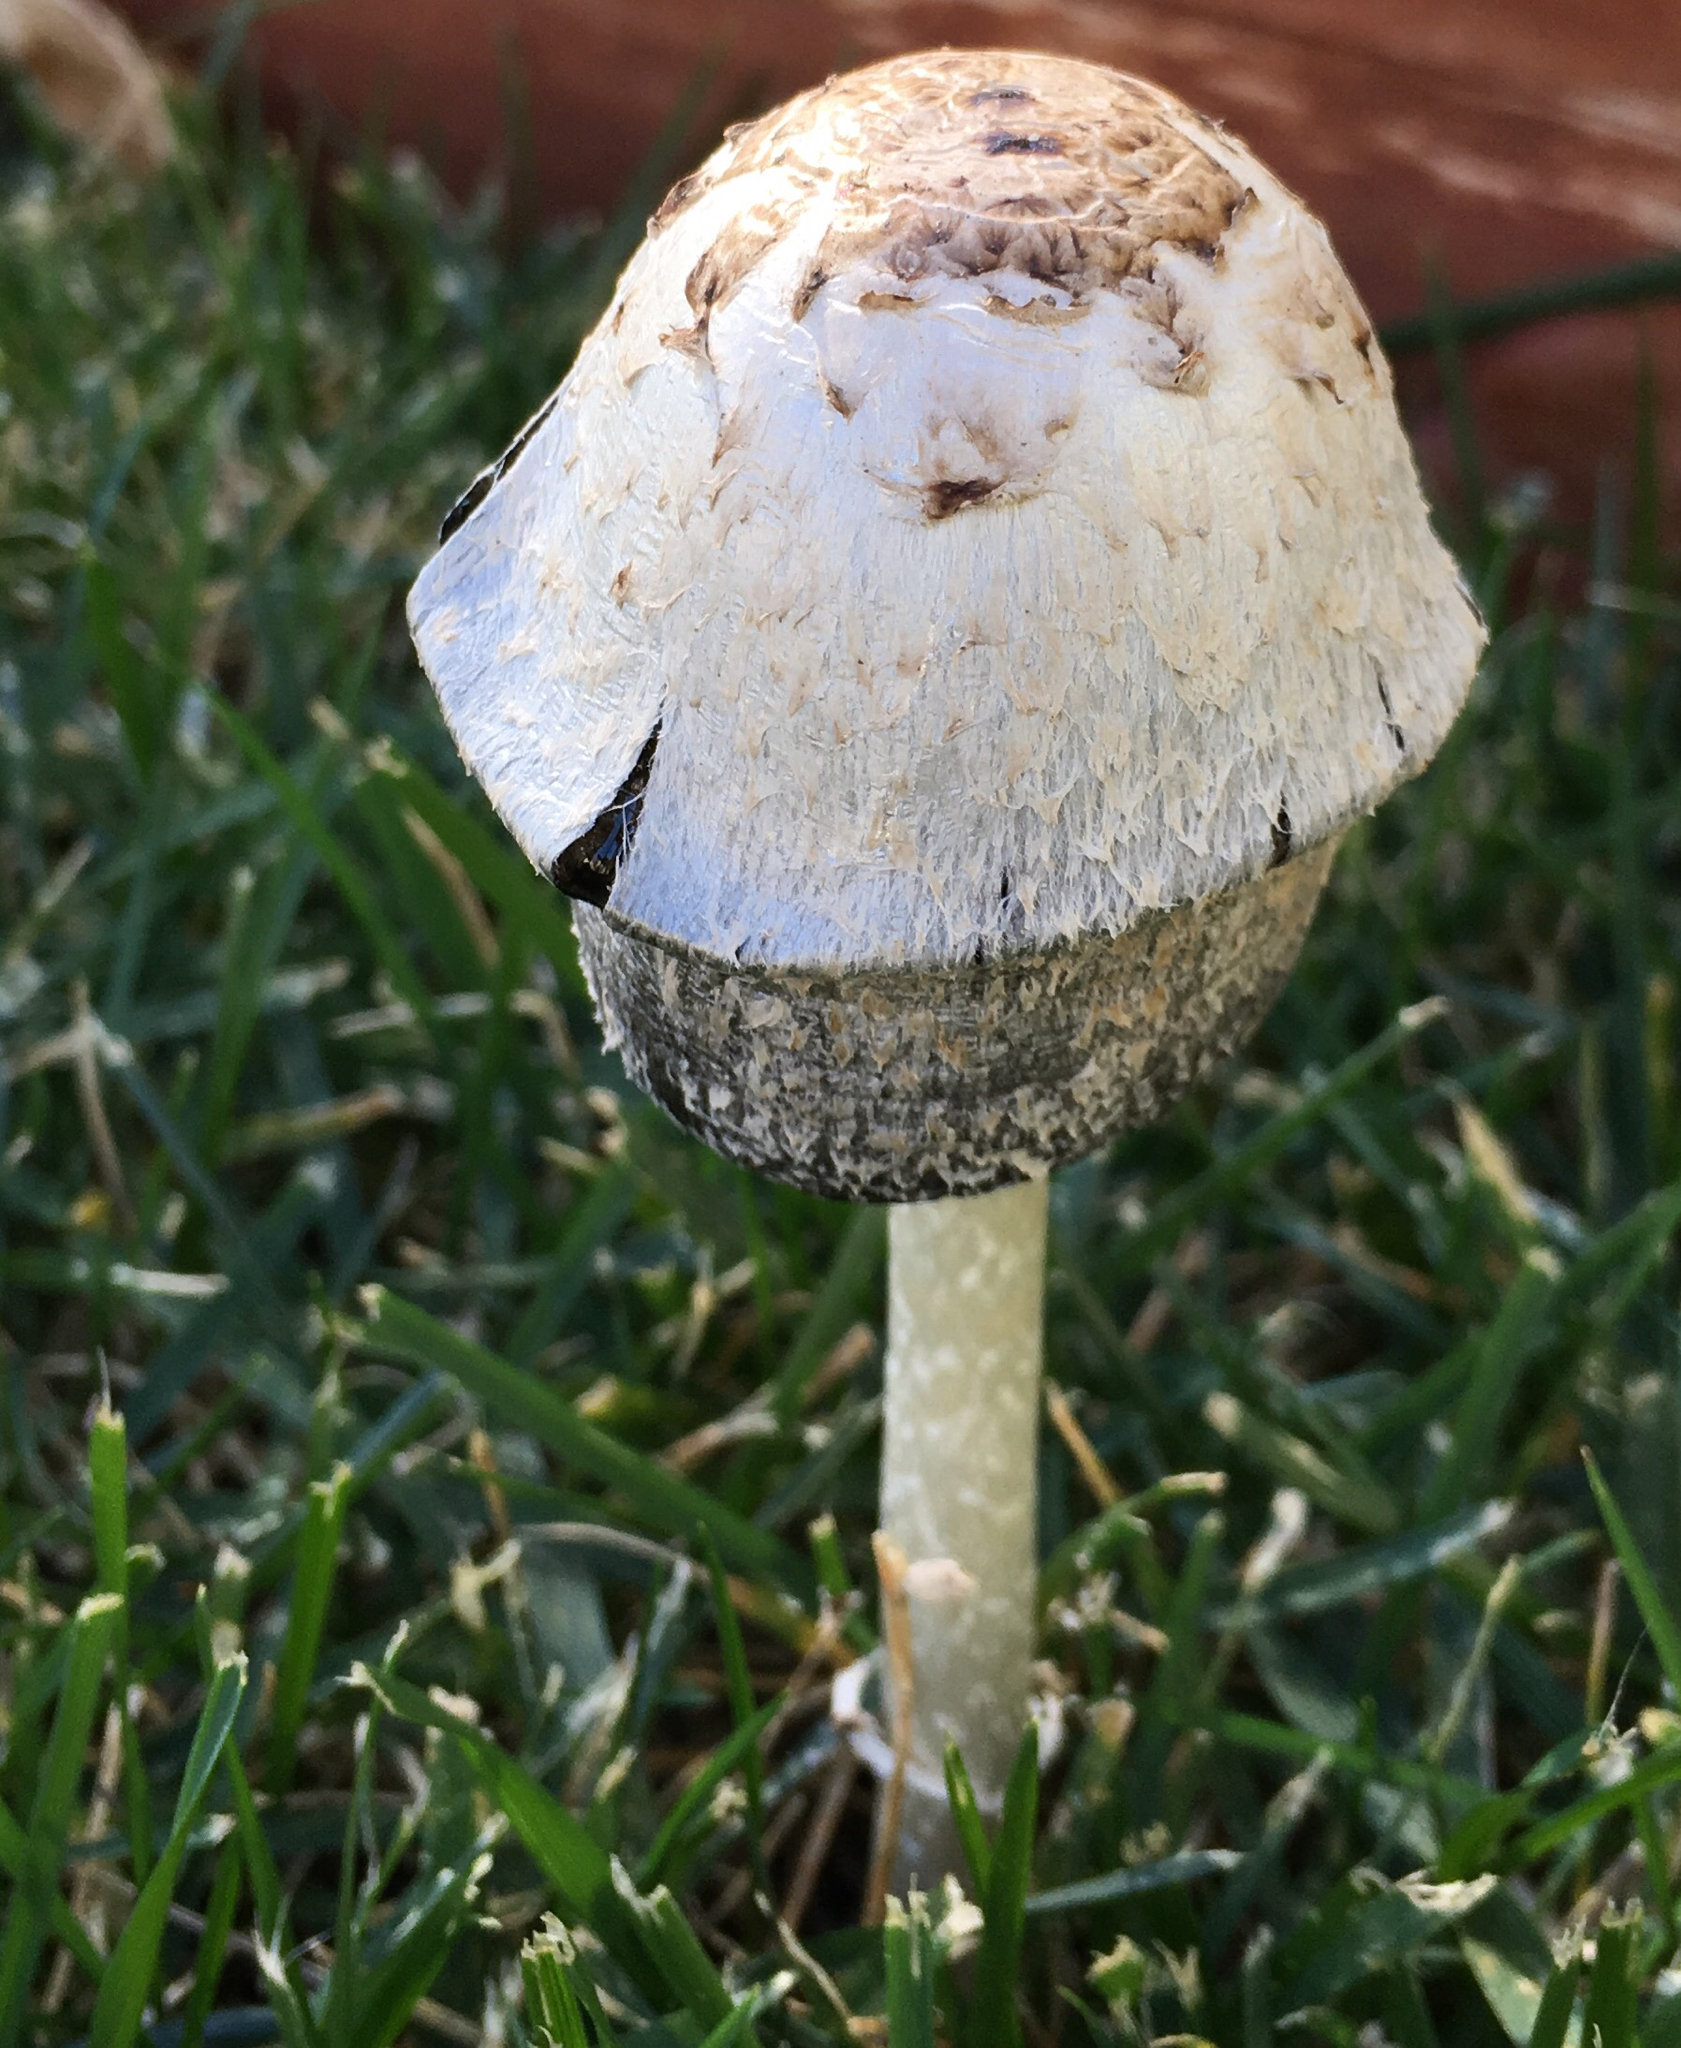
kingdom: Fungi
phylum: Basidiomycota
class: Agaricomycetes
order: Agaricales
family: Agaricaceae
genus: Coprinus
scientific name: Coprinus comatus
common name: Lawyer's wig
